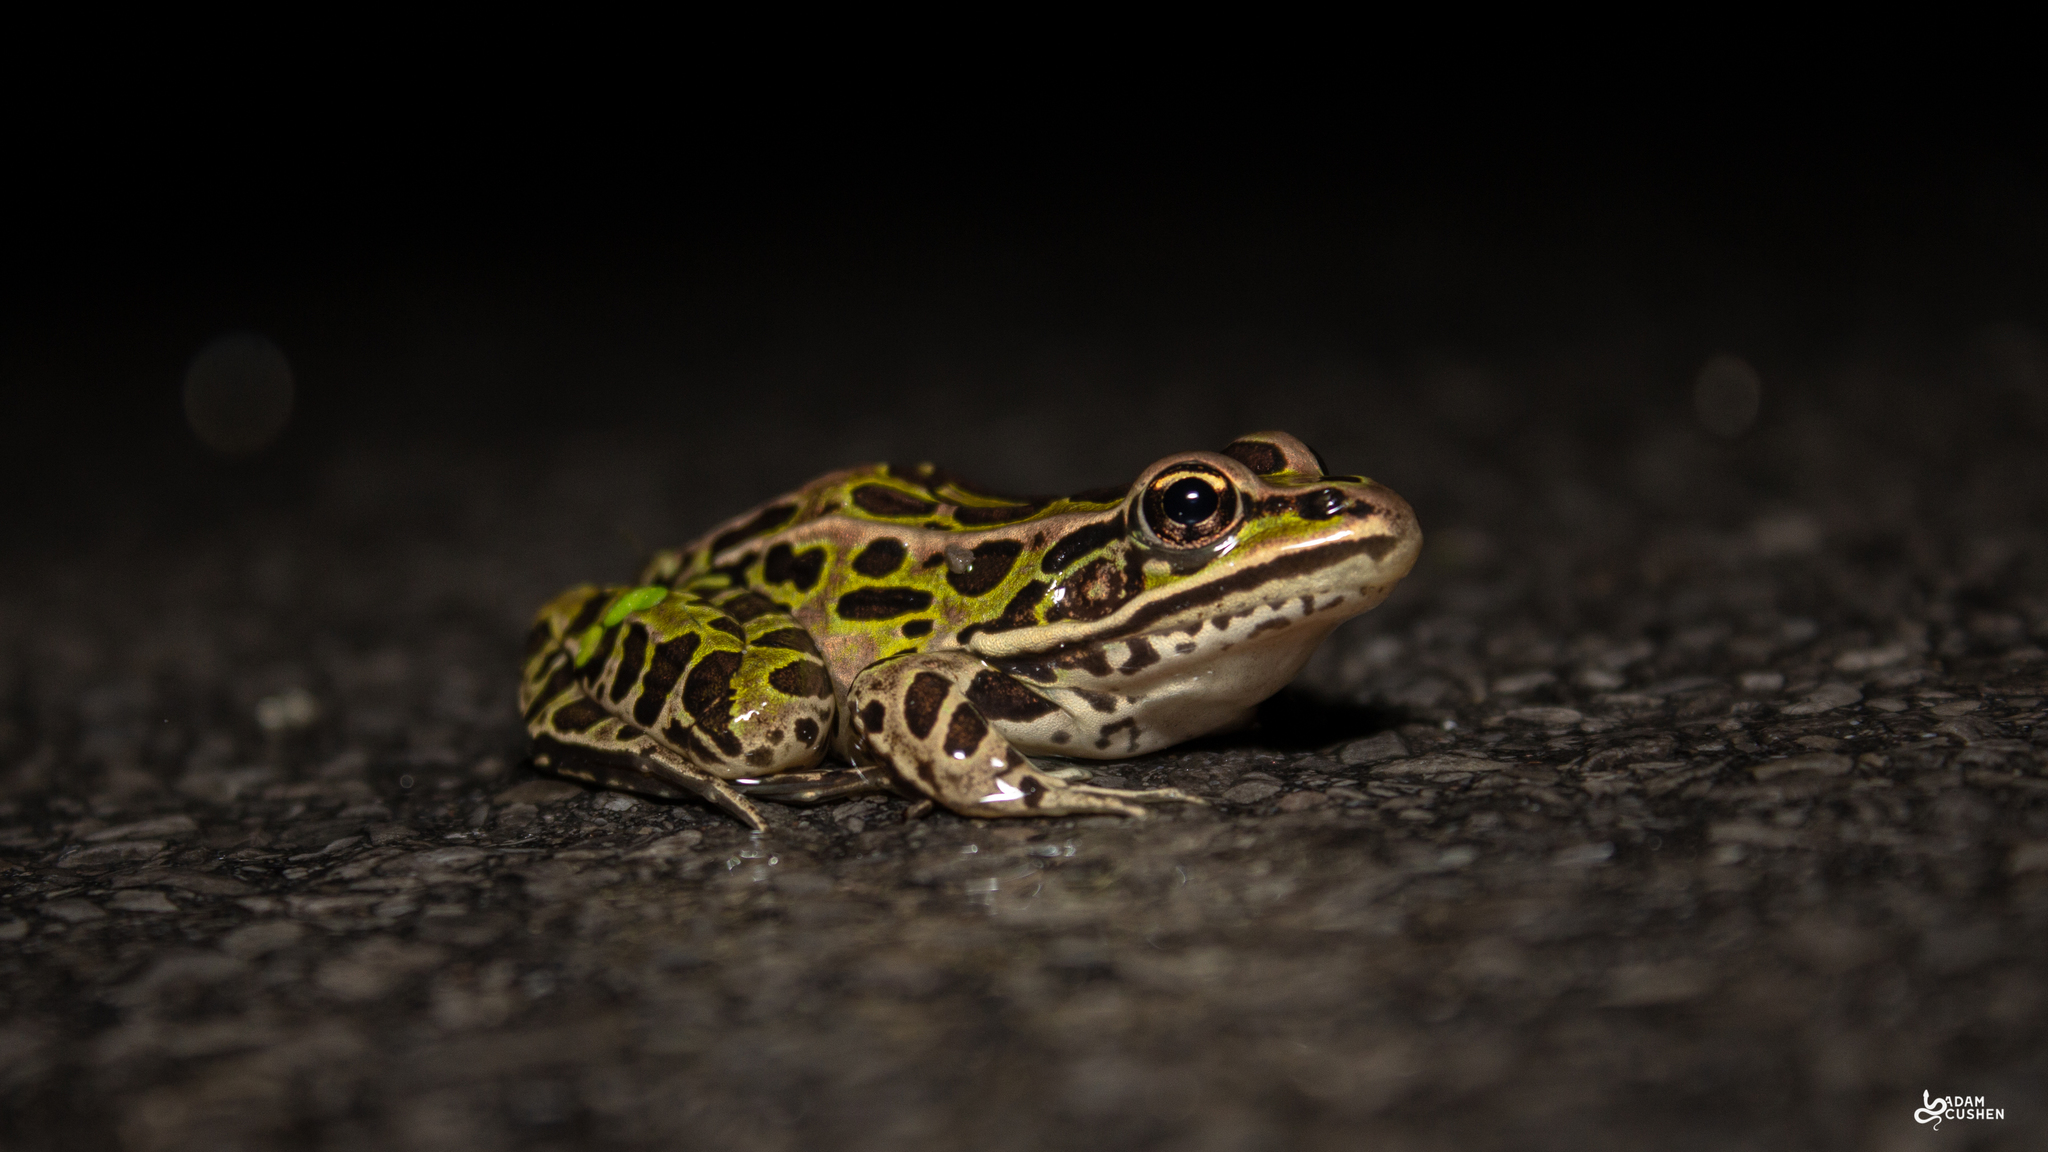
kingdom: Animalia
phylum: Chordata
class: Amphibia
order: Anura
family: Ranidae
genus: Lithobates
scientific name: Lithobates pipiens
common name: Northern leopard frog
